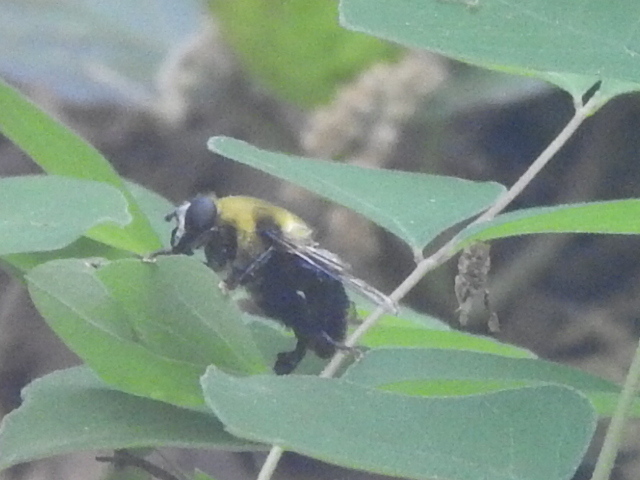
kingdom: Animalia
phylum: Arthropoda
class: Insecta
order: Diptera
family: Syrphidae
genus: Imatisma
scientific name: Imatisma posticata
